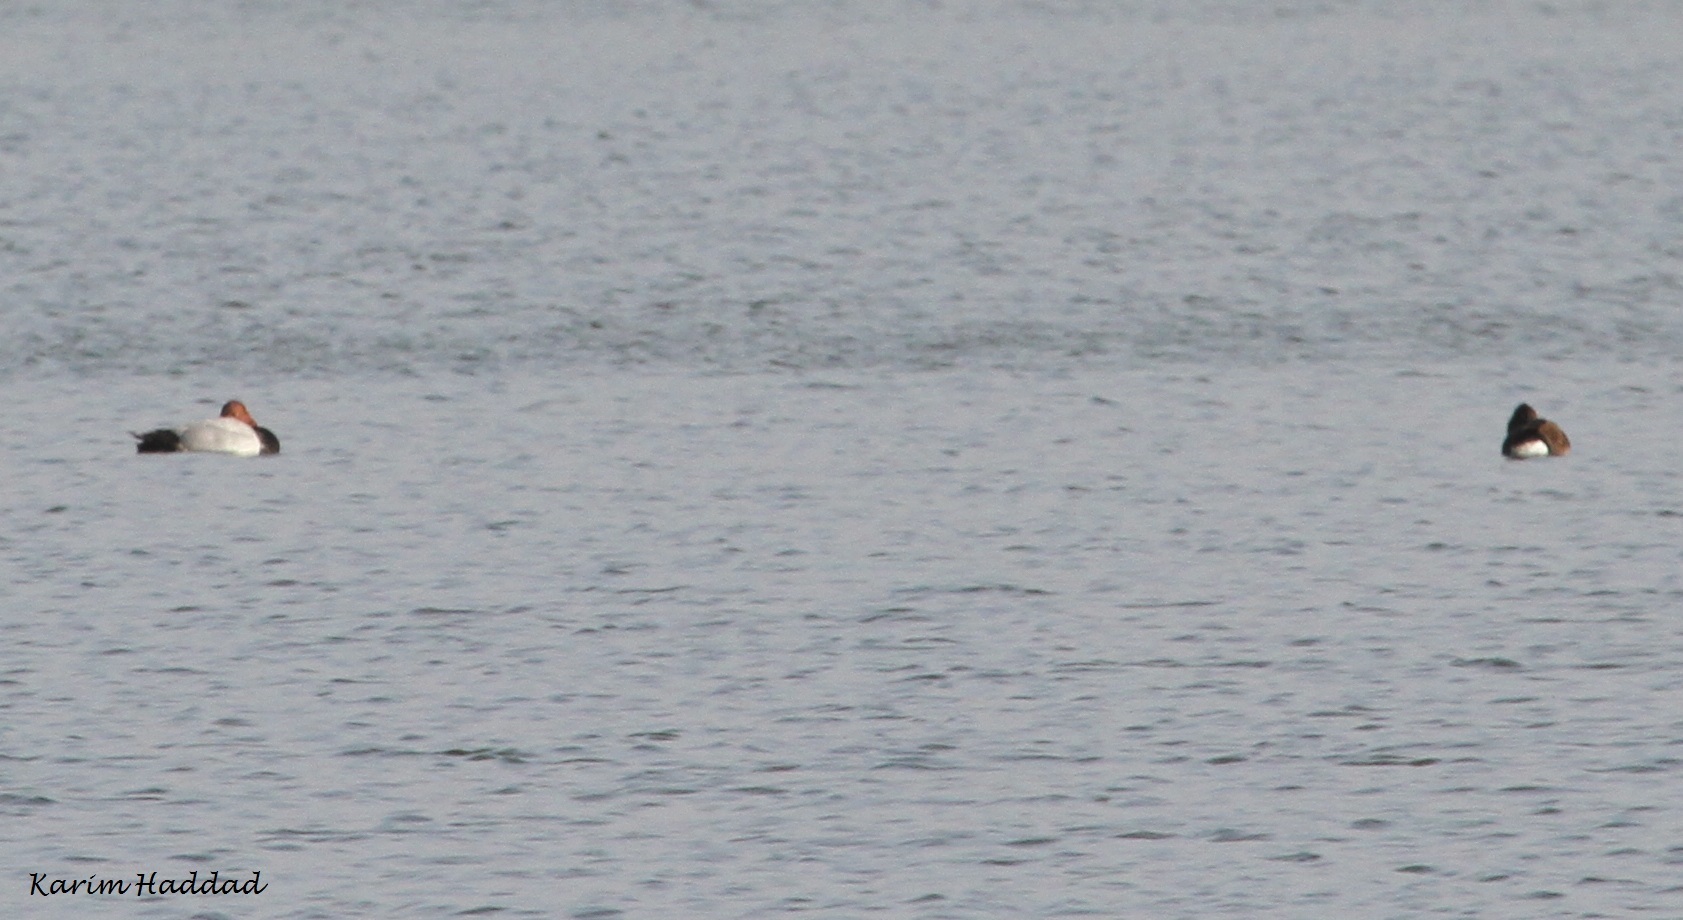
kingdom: Animalia
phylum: Chordata
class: Aves
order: Anseriformes
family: Anatidae
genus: Aythya
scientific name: Aythya ferina
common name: Common pochard
